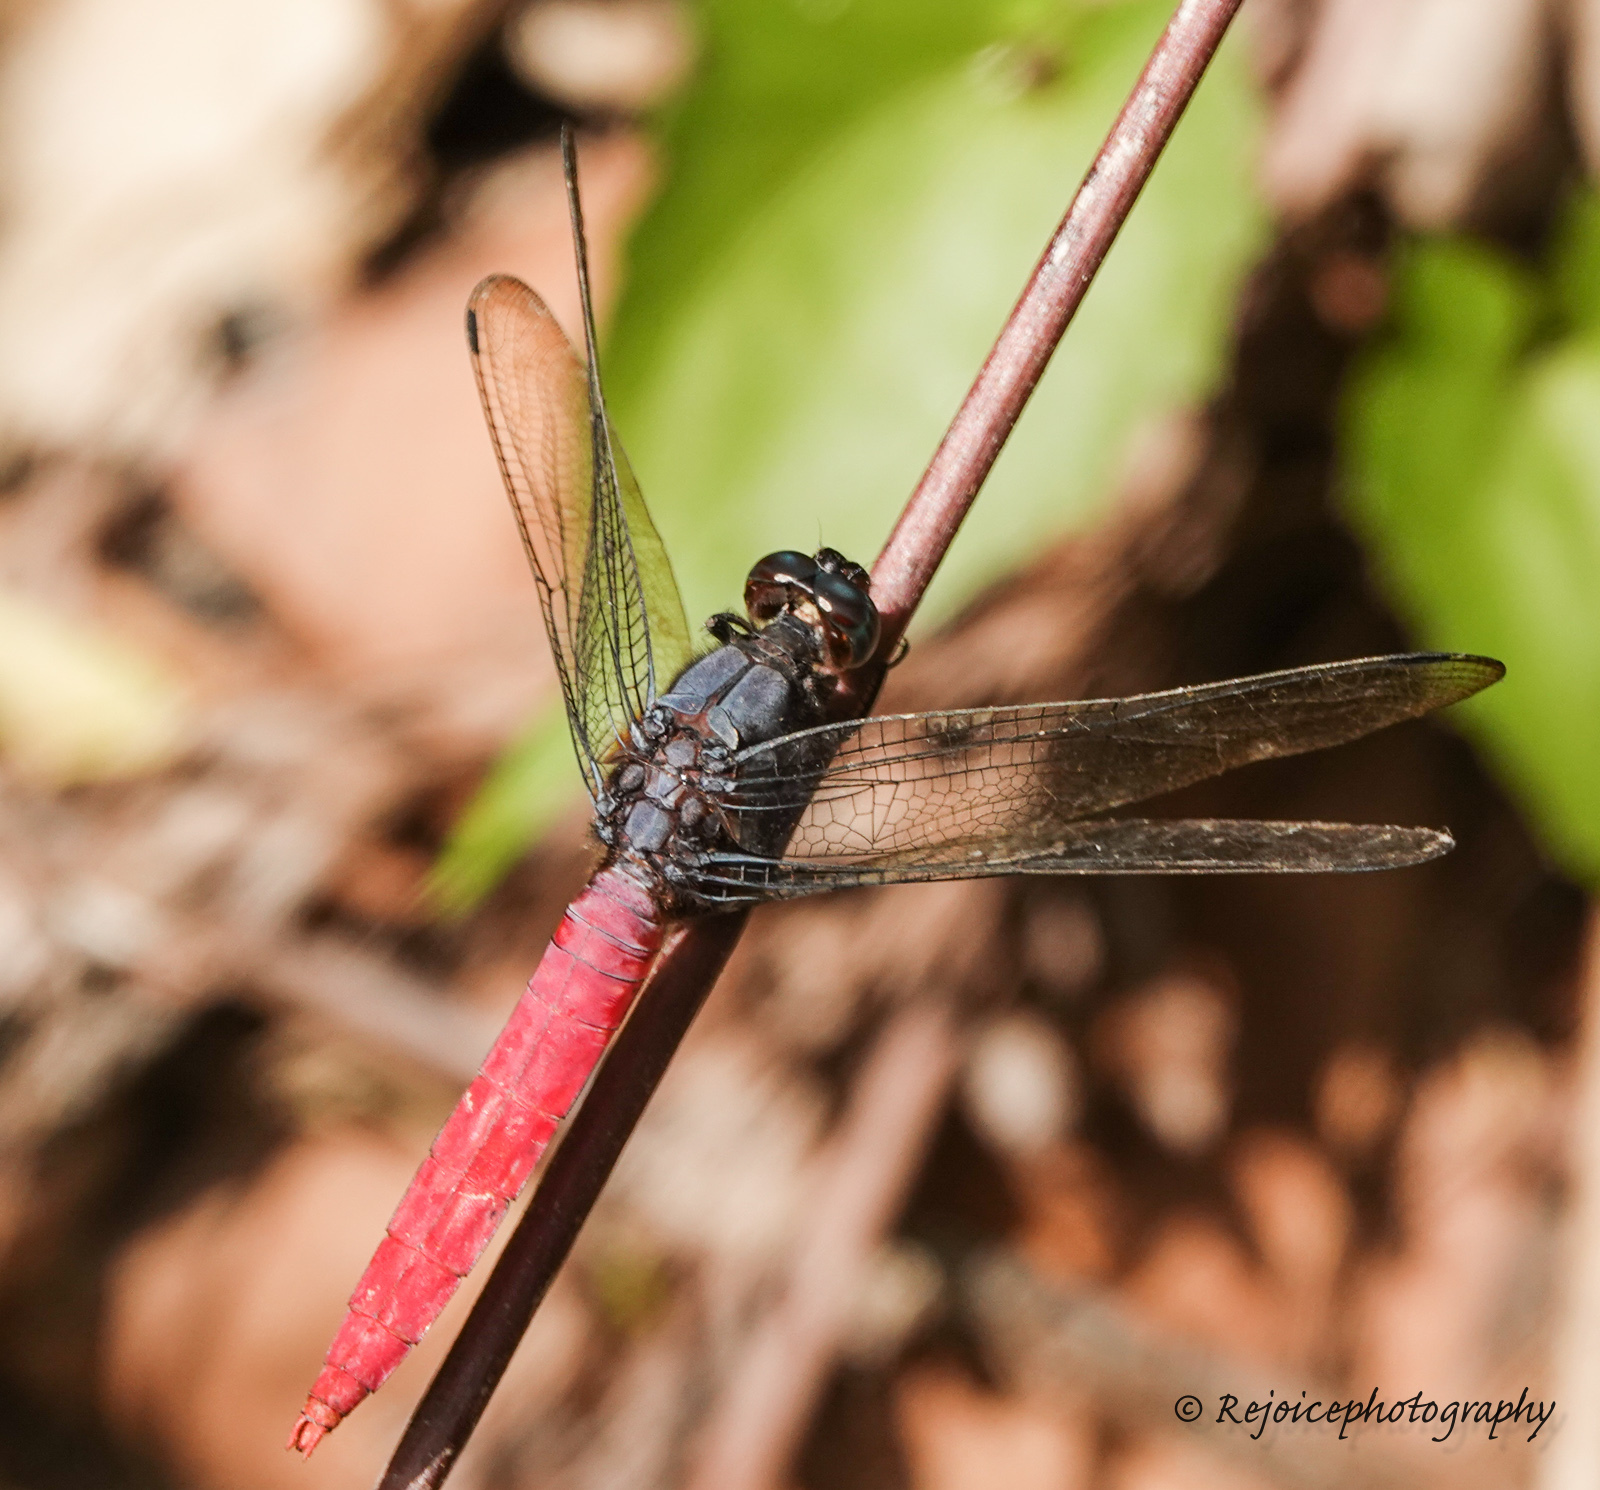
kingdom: Animalia
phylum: Arthropoda
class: Insecta
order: Odonata
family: Libellulidae
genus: Orthetrum
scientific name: Orthetrum pruinosum
